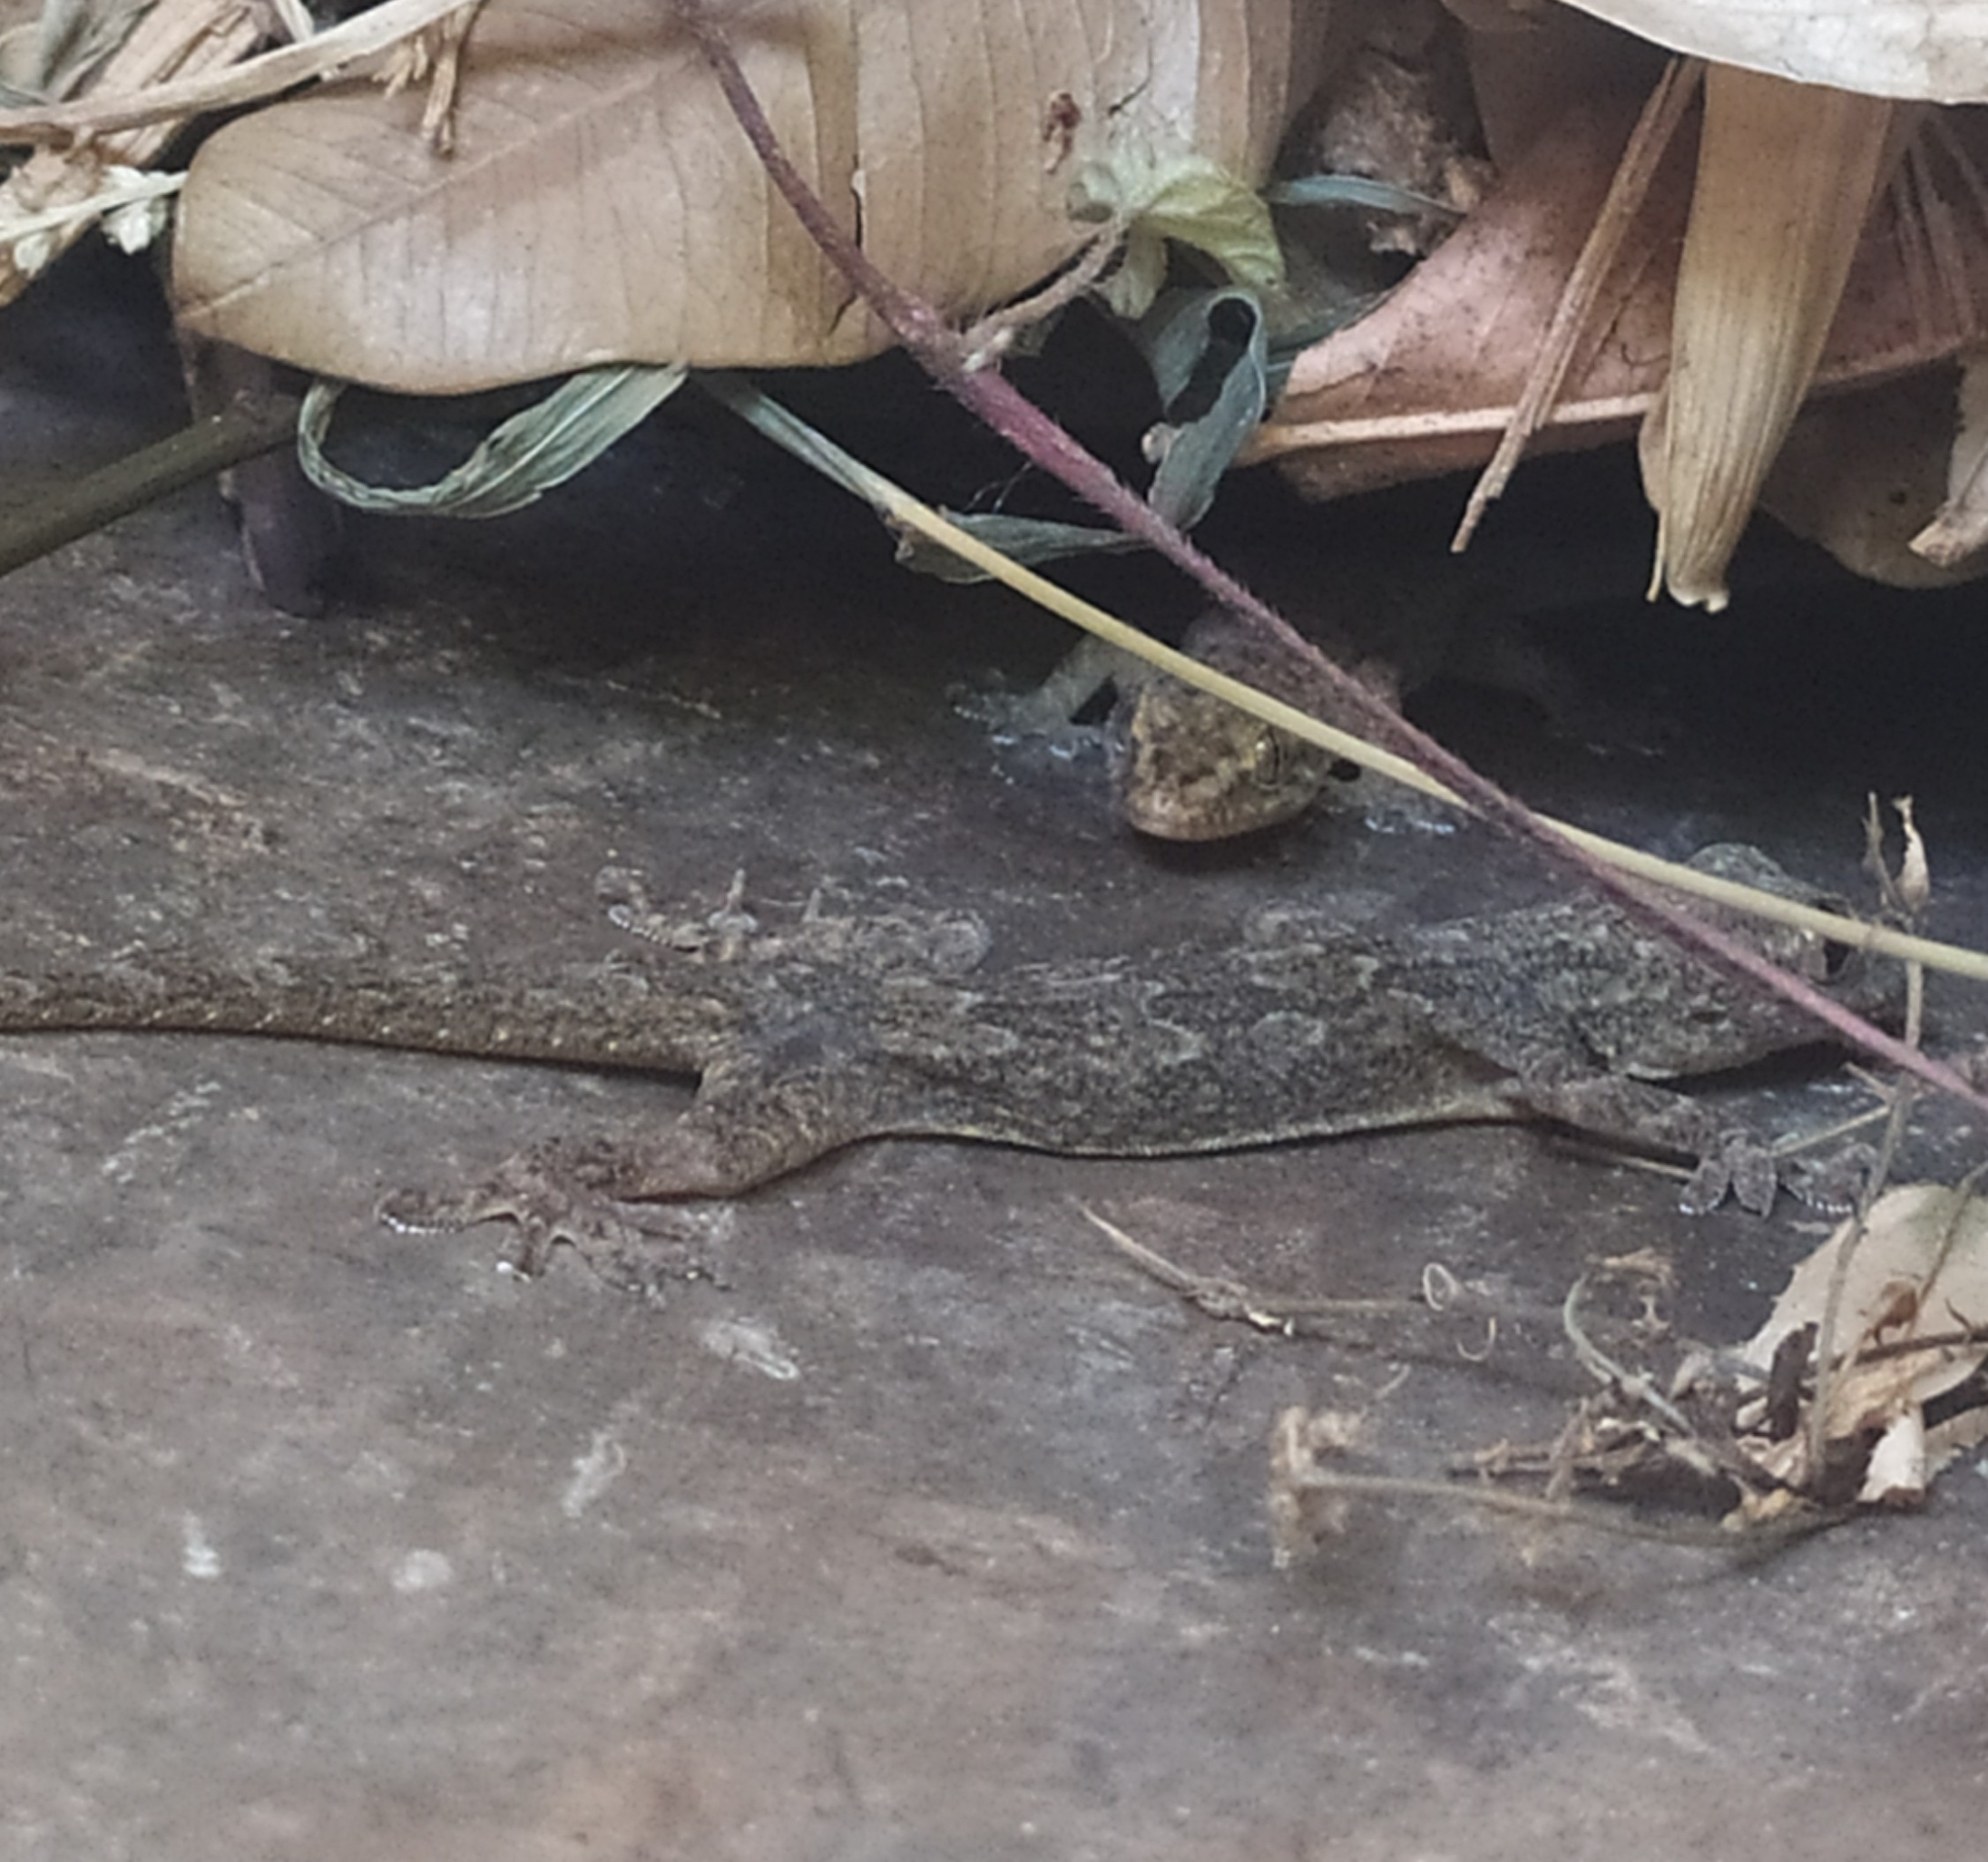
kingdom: Animalia
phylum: Chordata
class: Squamata
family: Gekkonidae
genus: Hemidactylus
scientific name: Hemidactylus flaviviridis
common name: Northern house gecko
